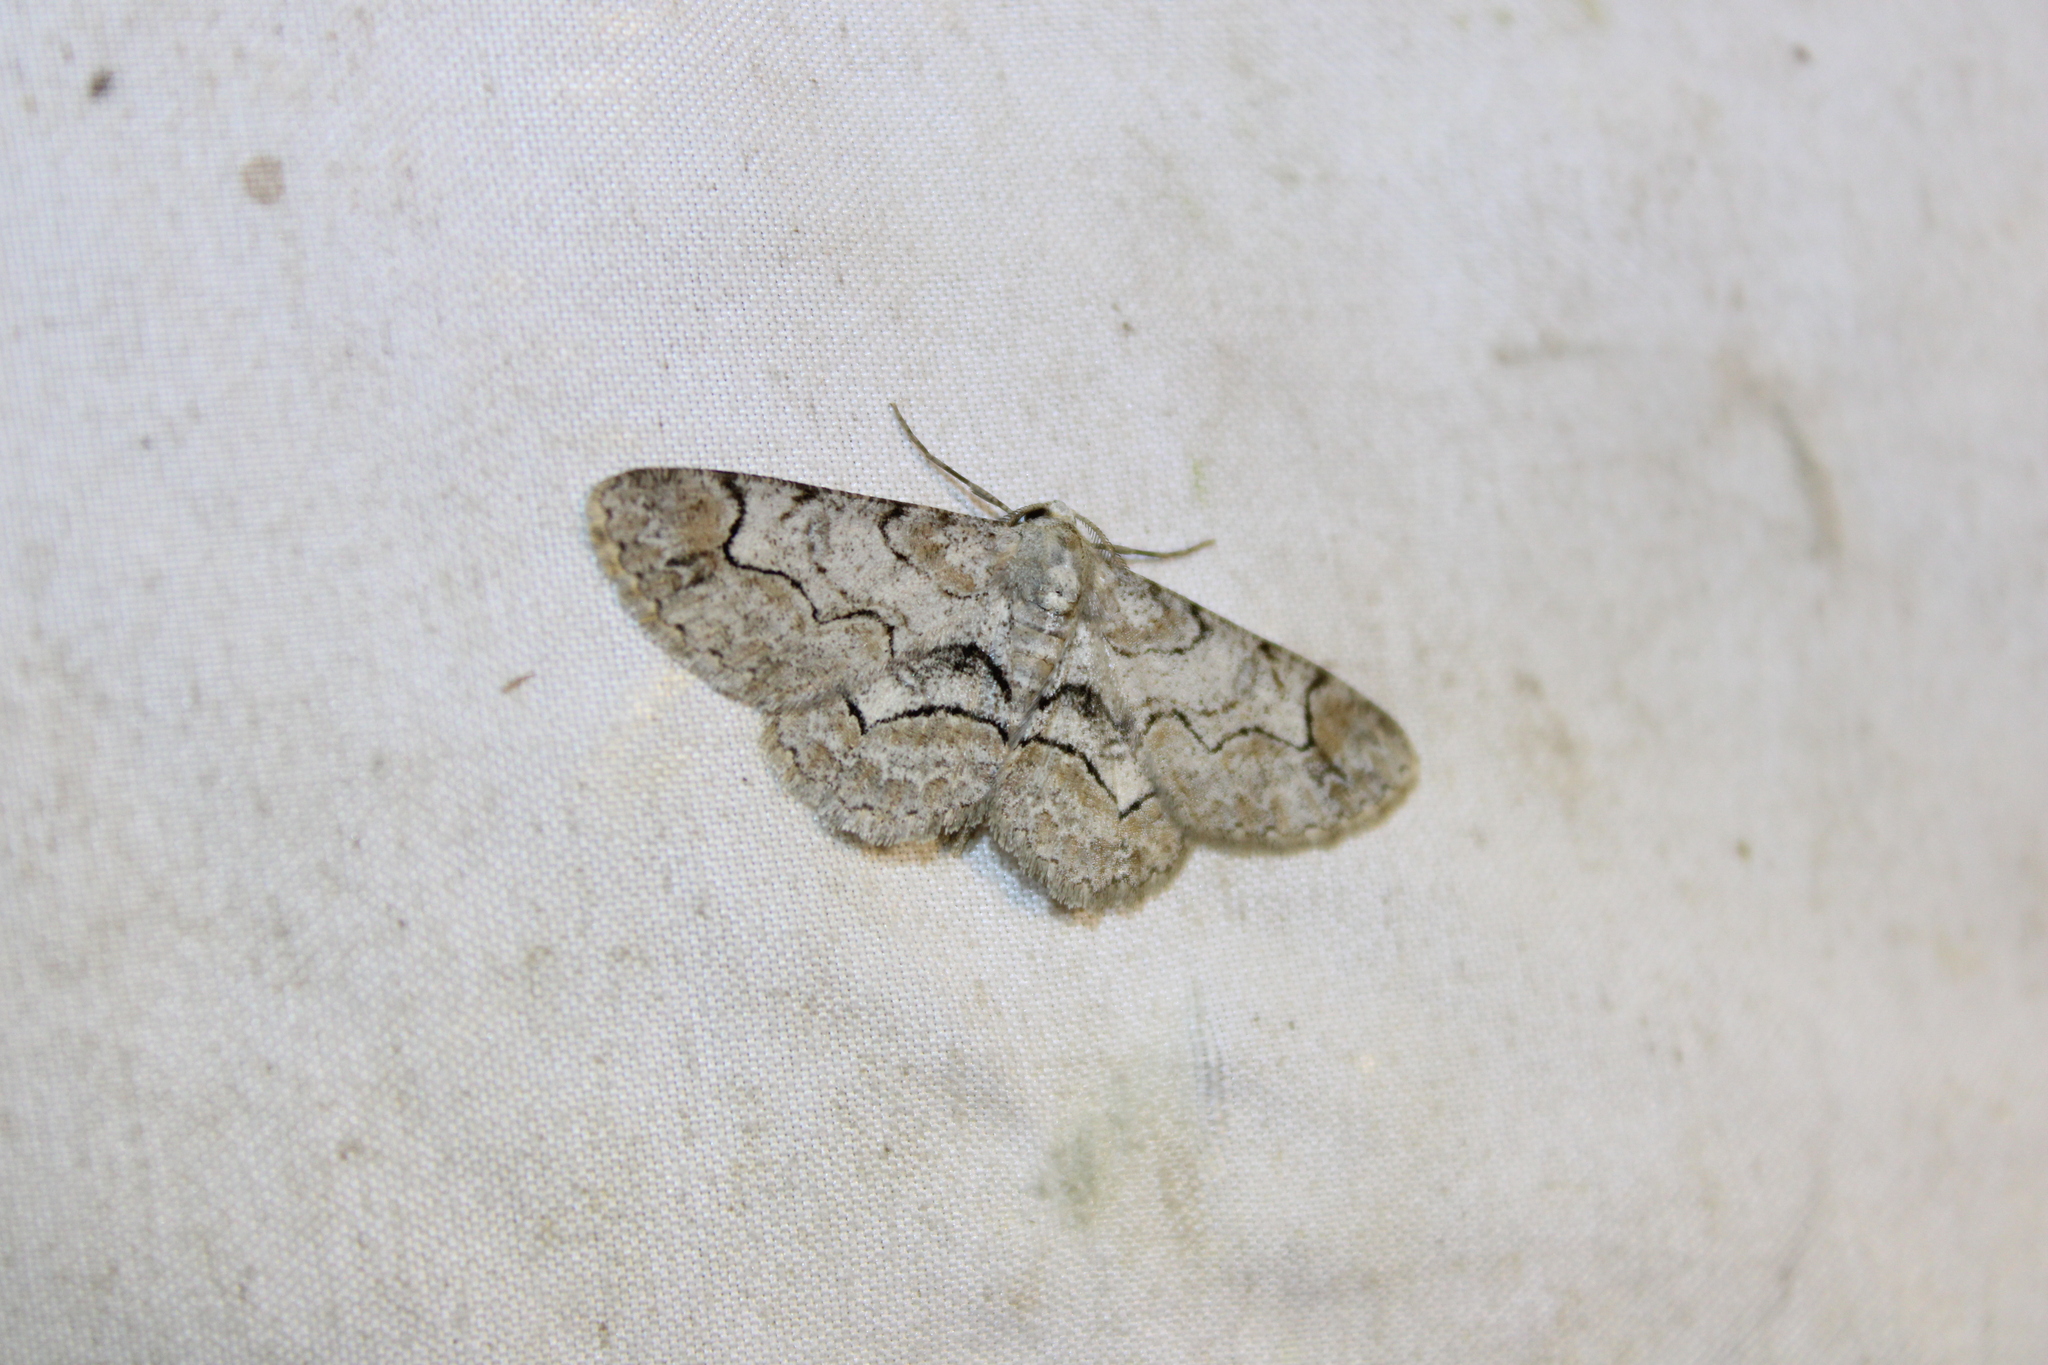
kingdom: Animalia
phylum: Arthropoda
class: Insecta
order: Lepidoptera
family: Geometridae
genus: Iridopsis
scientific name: Iridopsis larvaria
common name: Bent-line gray
